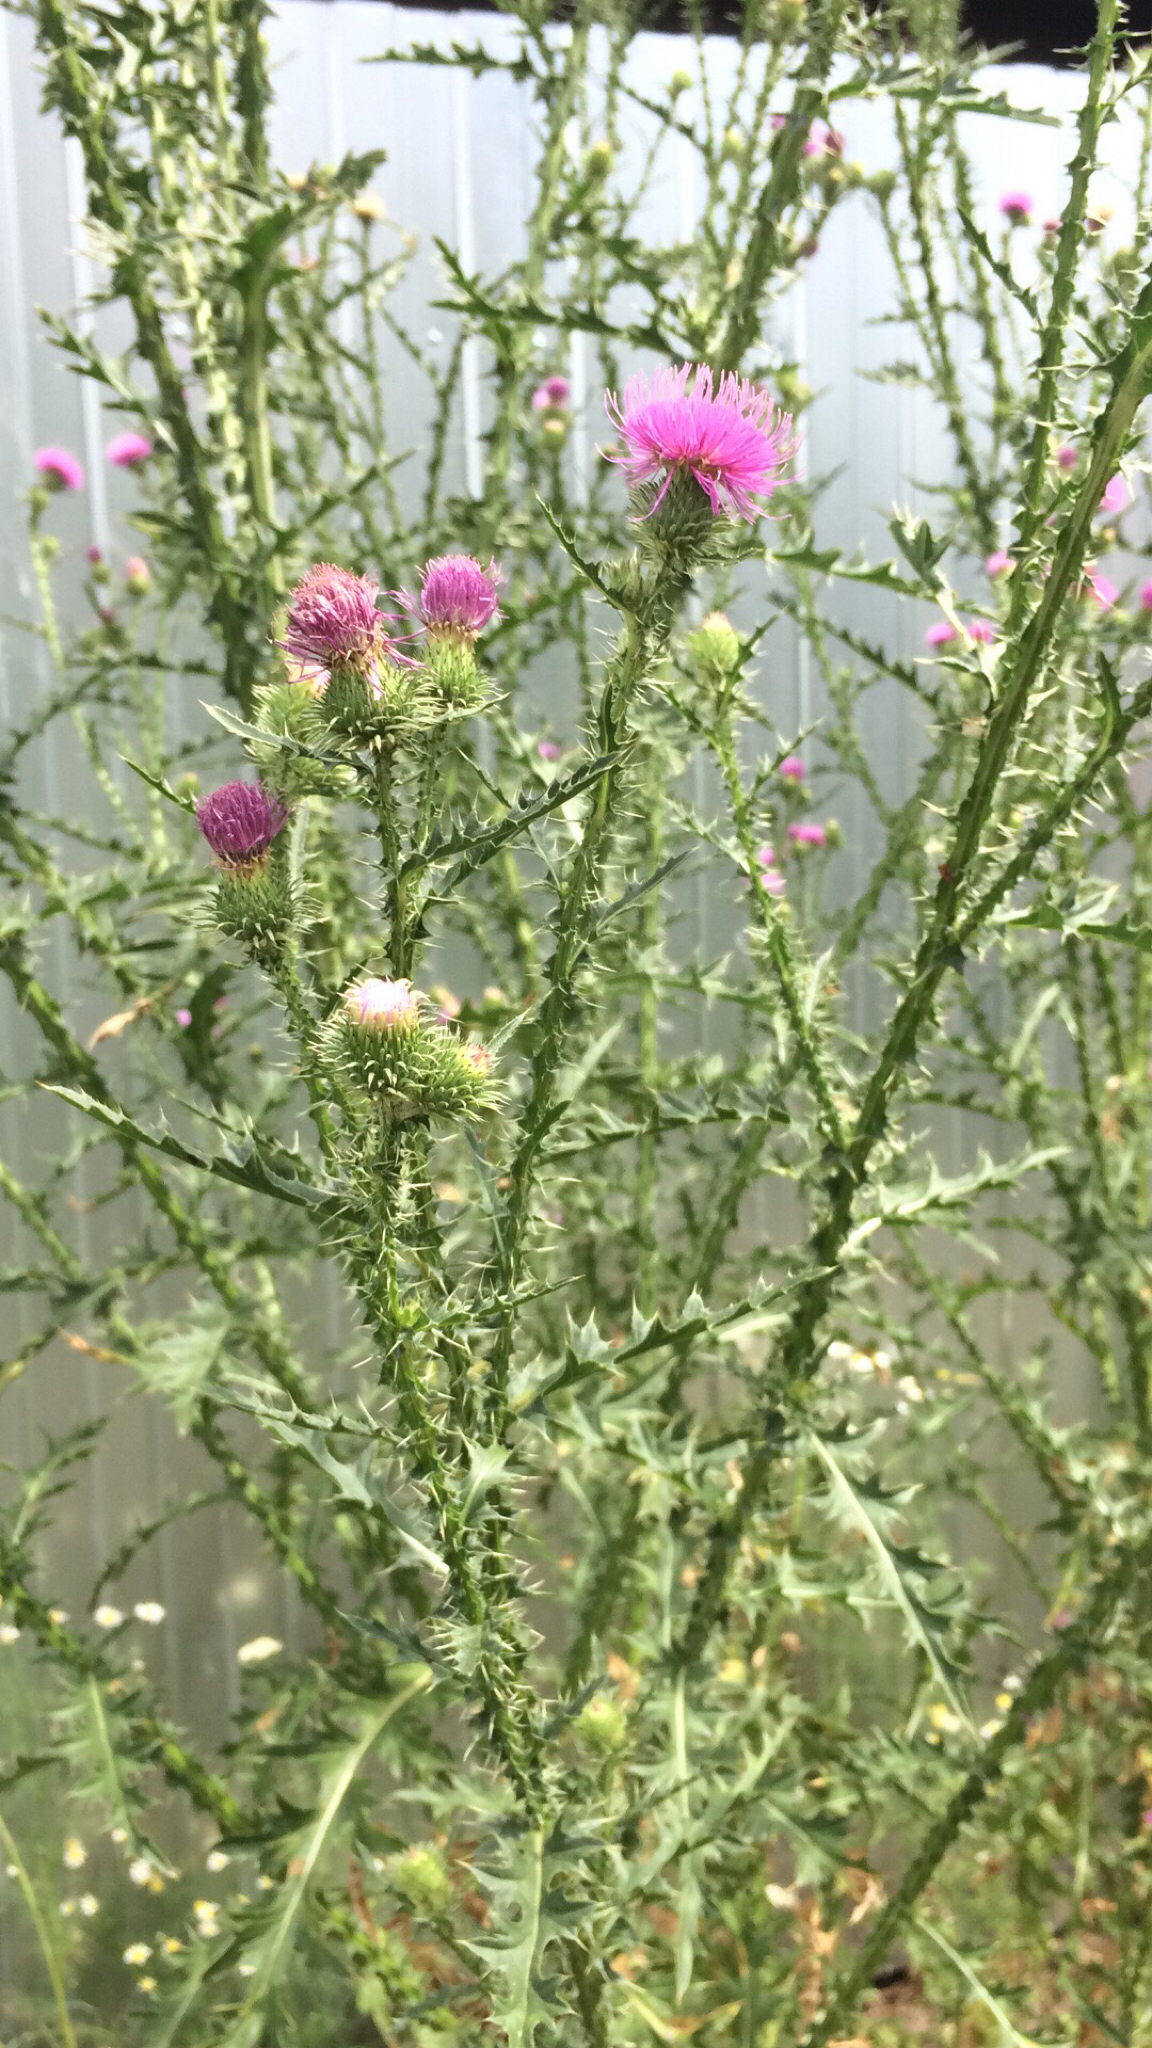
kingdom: Plantae
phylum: Tracheophyta
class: Magnoliopsida
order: Asterales
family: Asteraceae
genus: Carduus
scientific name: Carduus acanthoides
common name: Plumeless thistle
